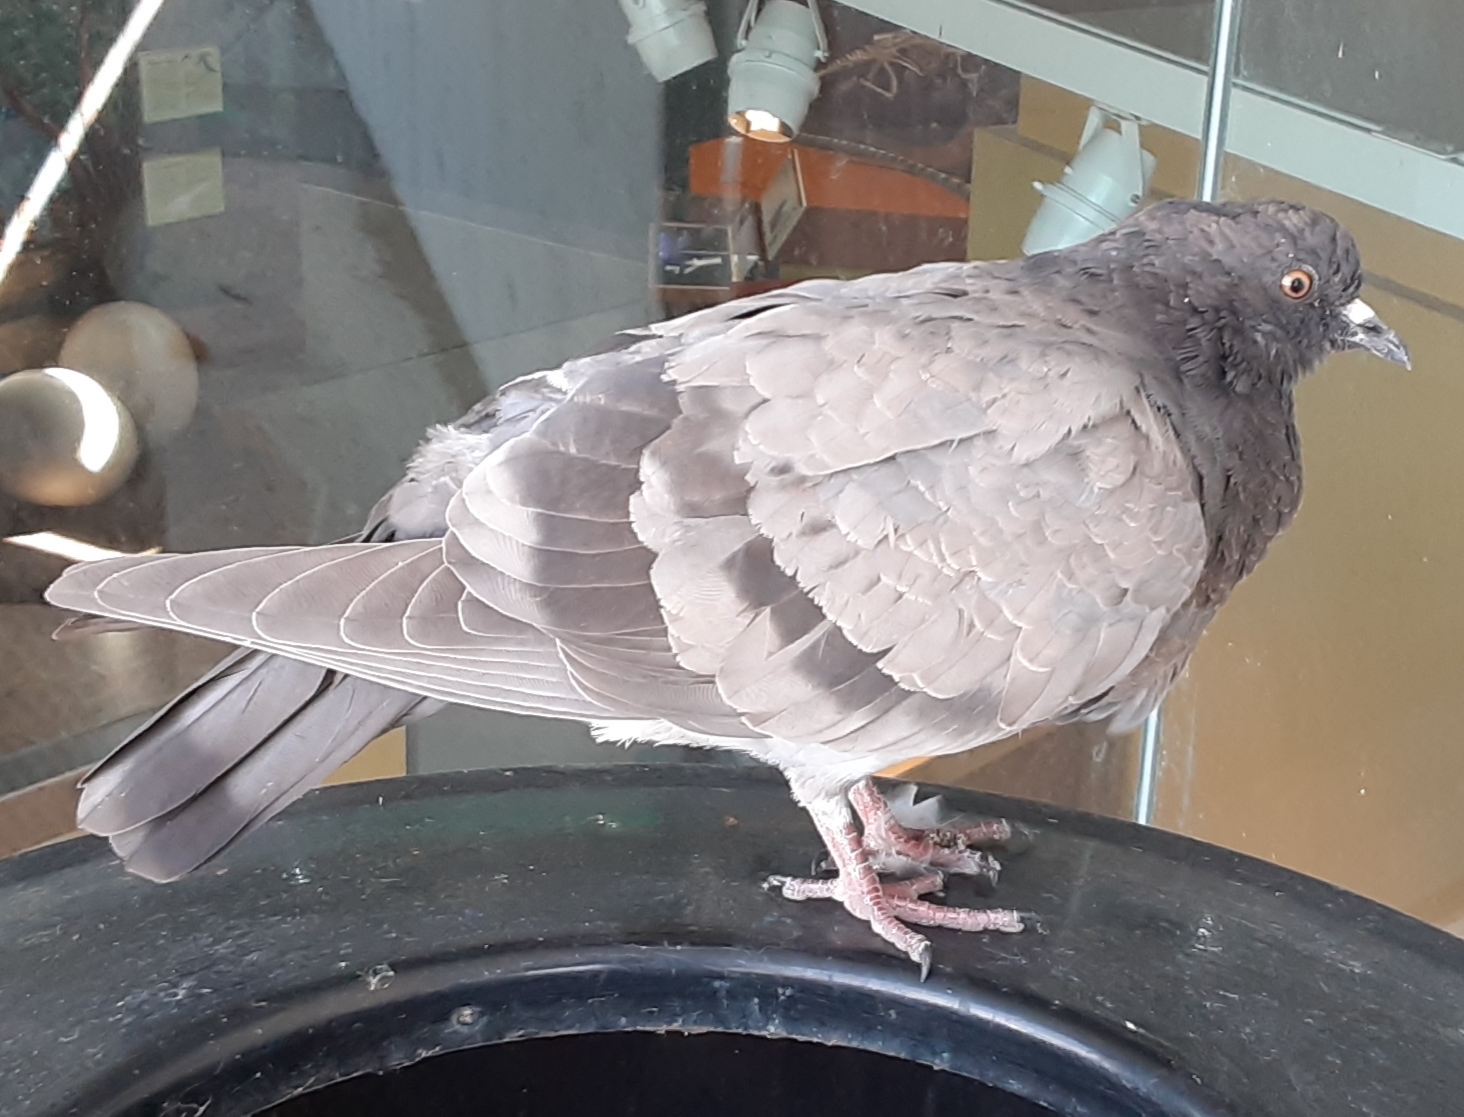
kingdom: Animalia
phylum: Chordata
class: Aves
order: Columbiformes
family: Columbidae
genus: Columba
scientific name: Columba livia
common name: Rock pigeon
